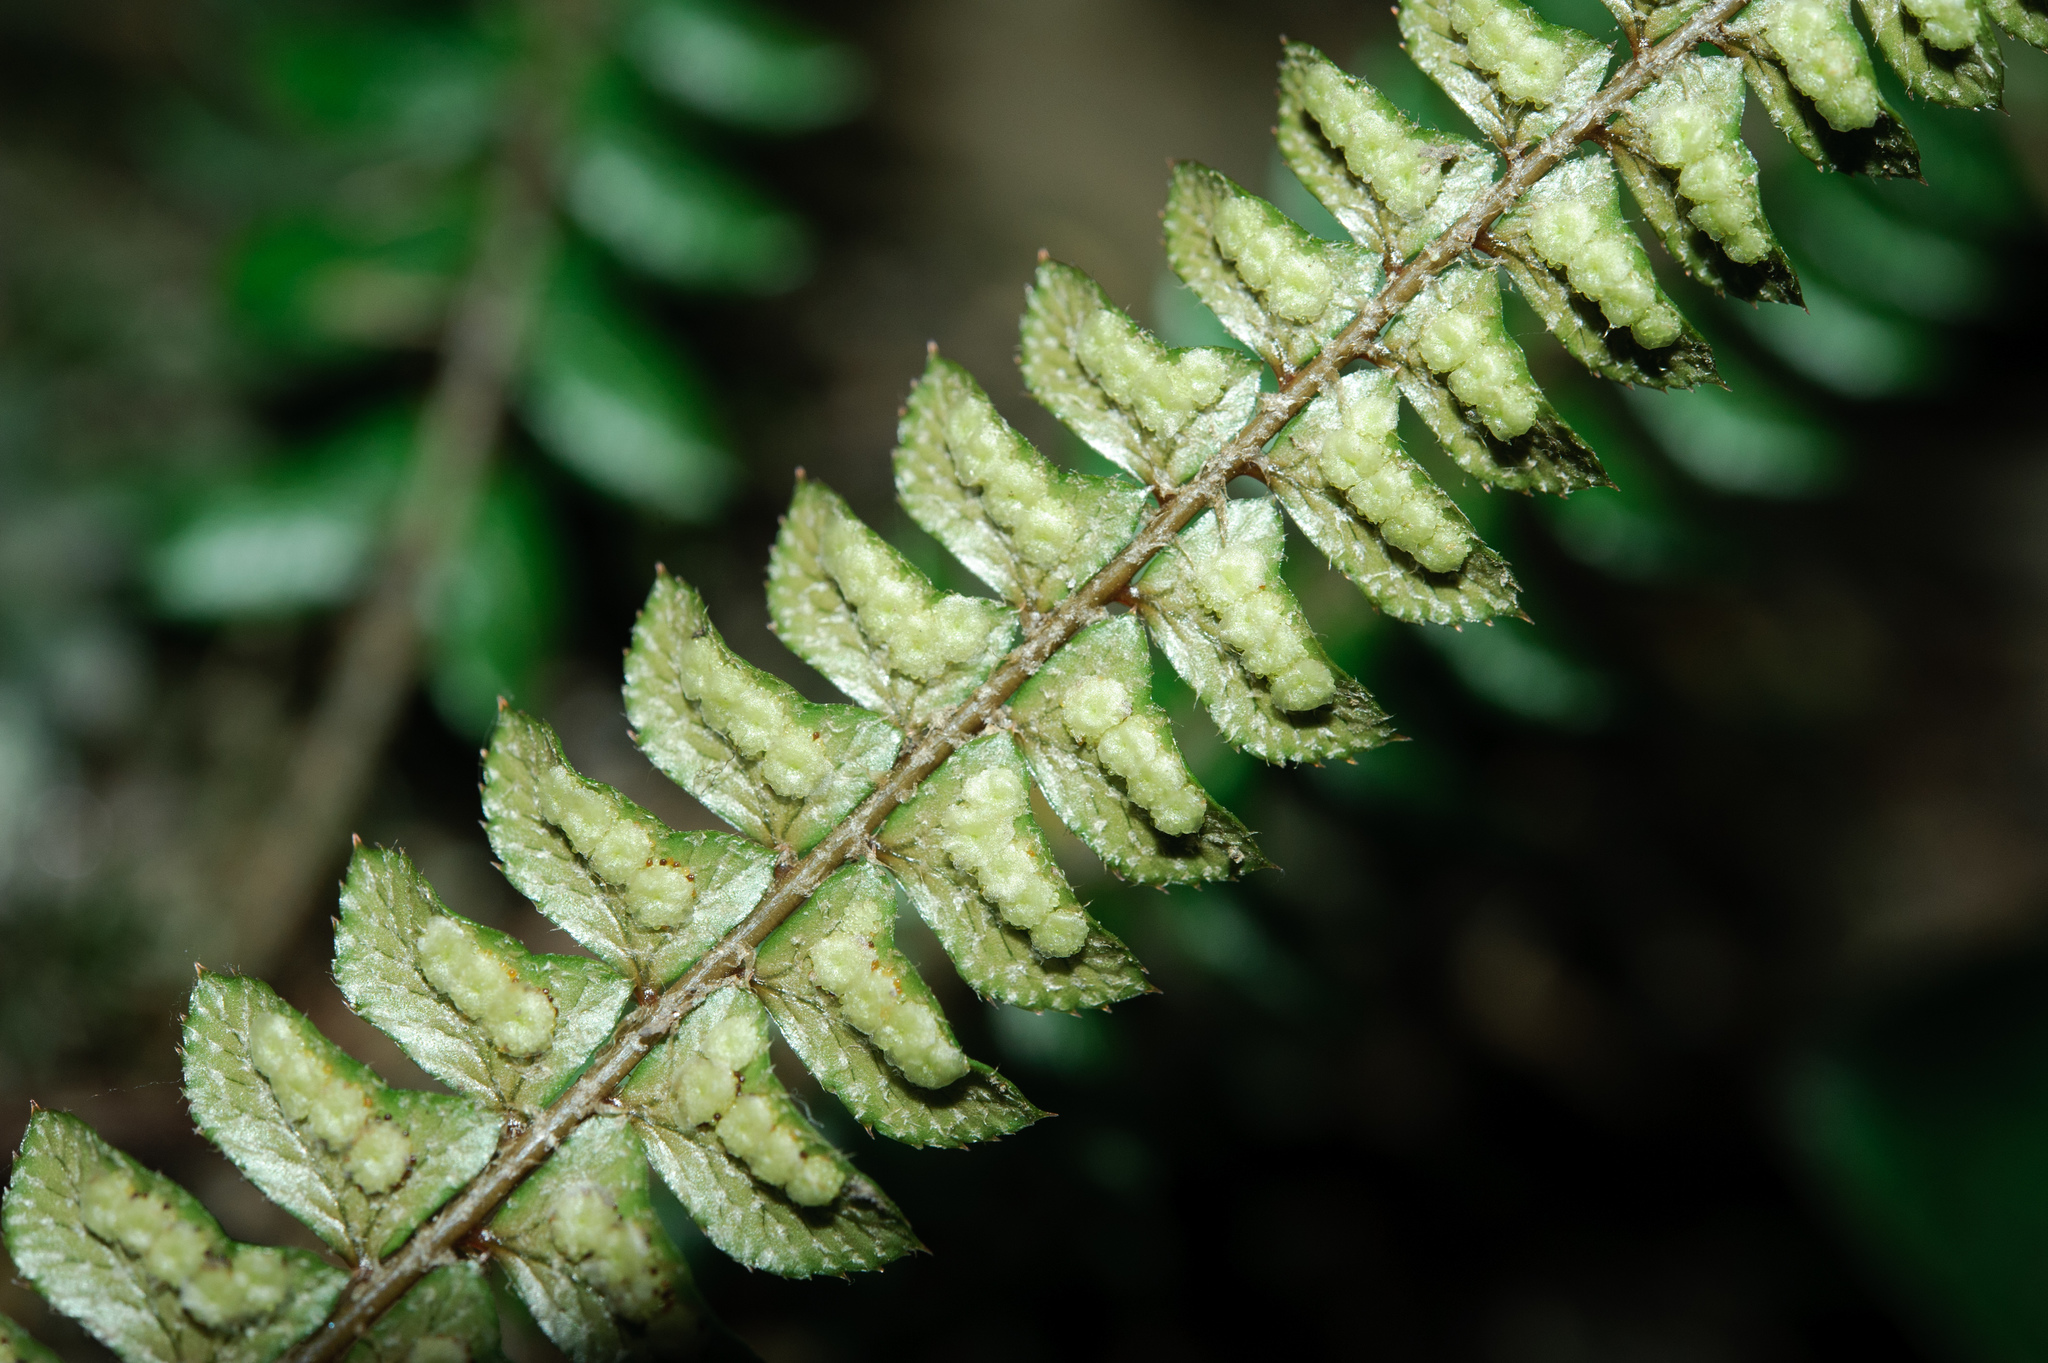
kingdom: Plantae
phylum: Tracheophyta
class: Polypodiopsida
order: Polypodiales
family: Dryopteridaceae
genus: Polystichum
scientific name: Polystichum levingei
